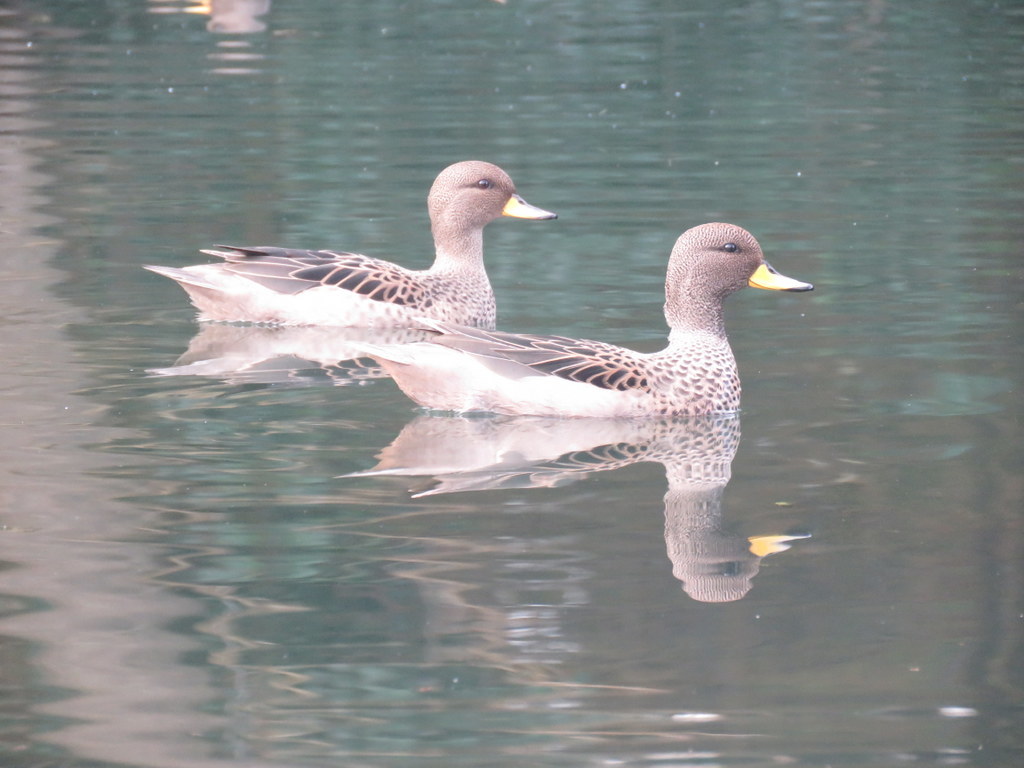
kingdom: Animalia
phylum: Chordata
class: Aves
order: Anseriformes
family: Anatidae
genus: Anas
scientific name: Anas flavirostris
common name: Yellow-billed teal
